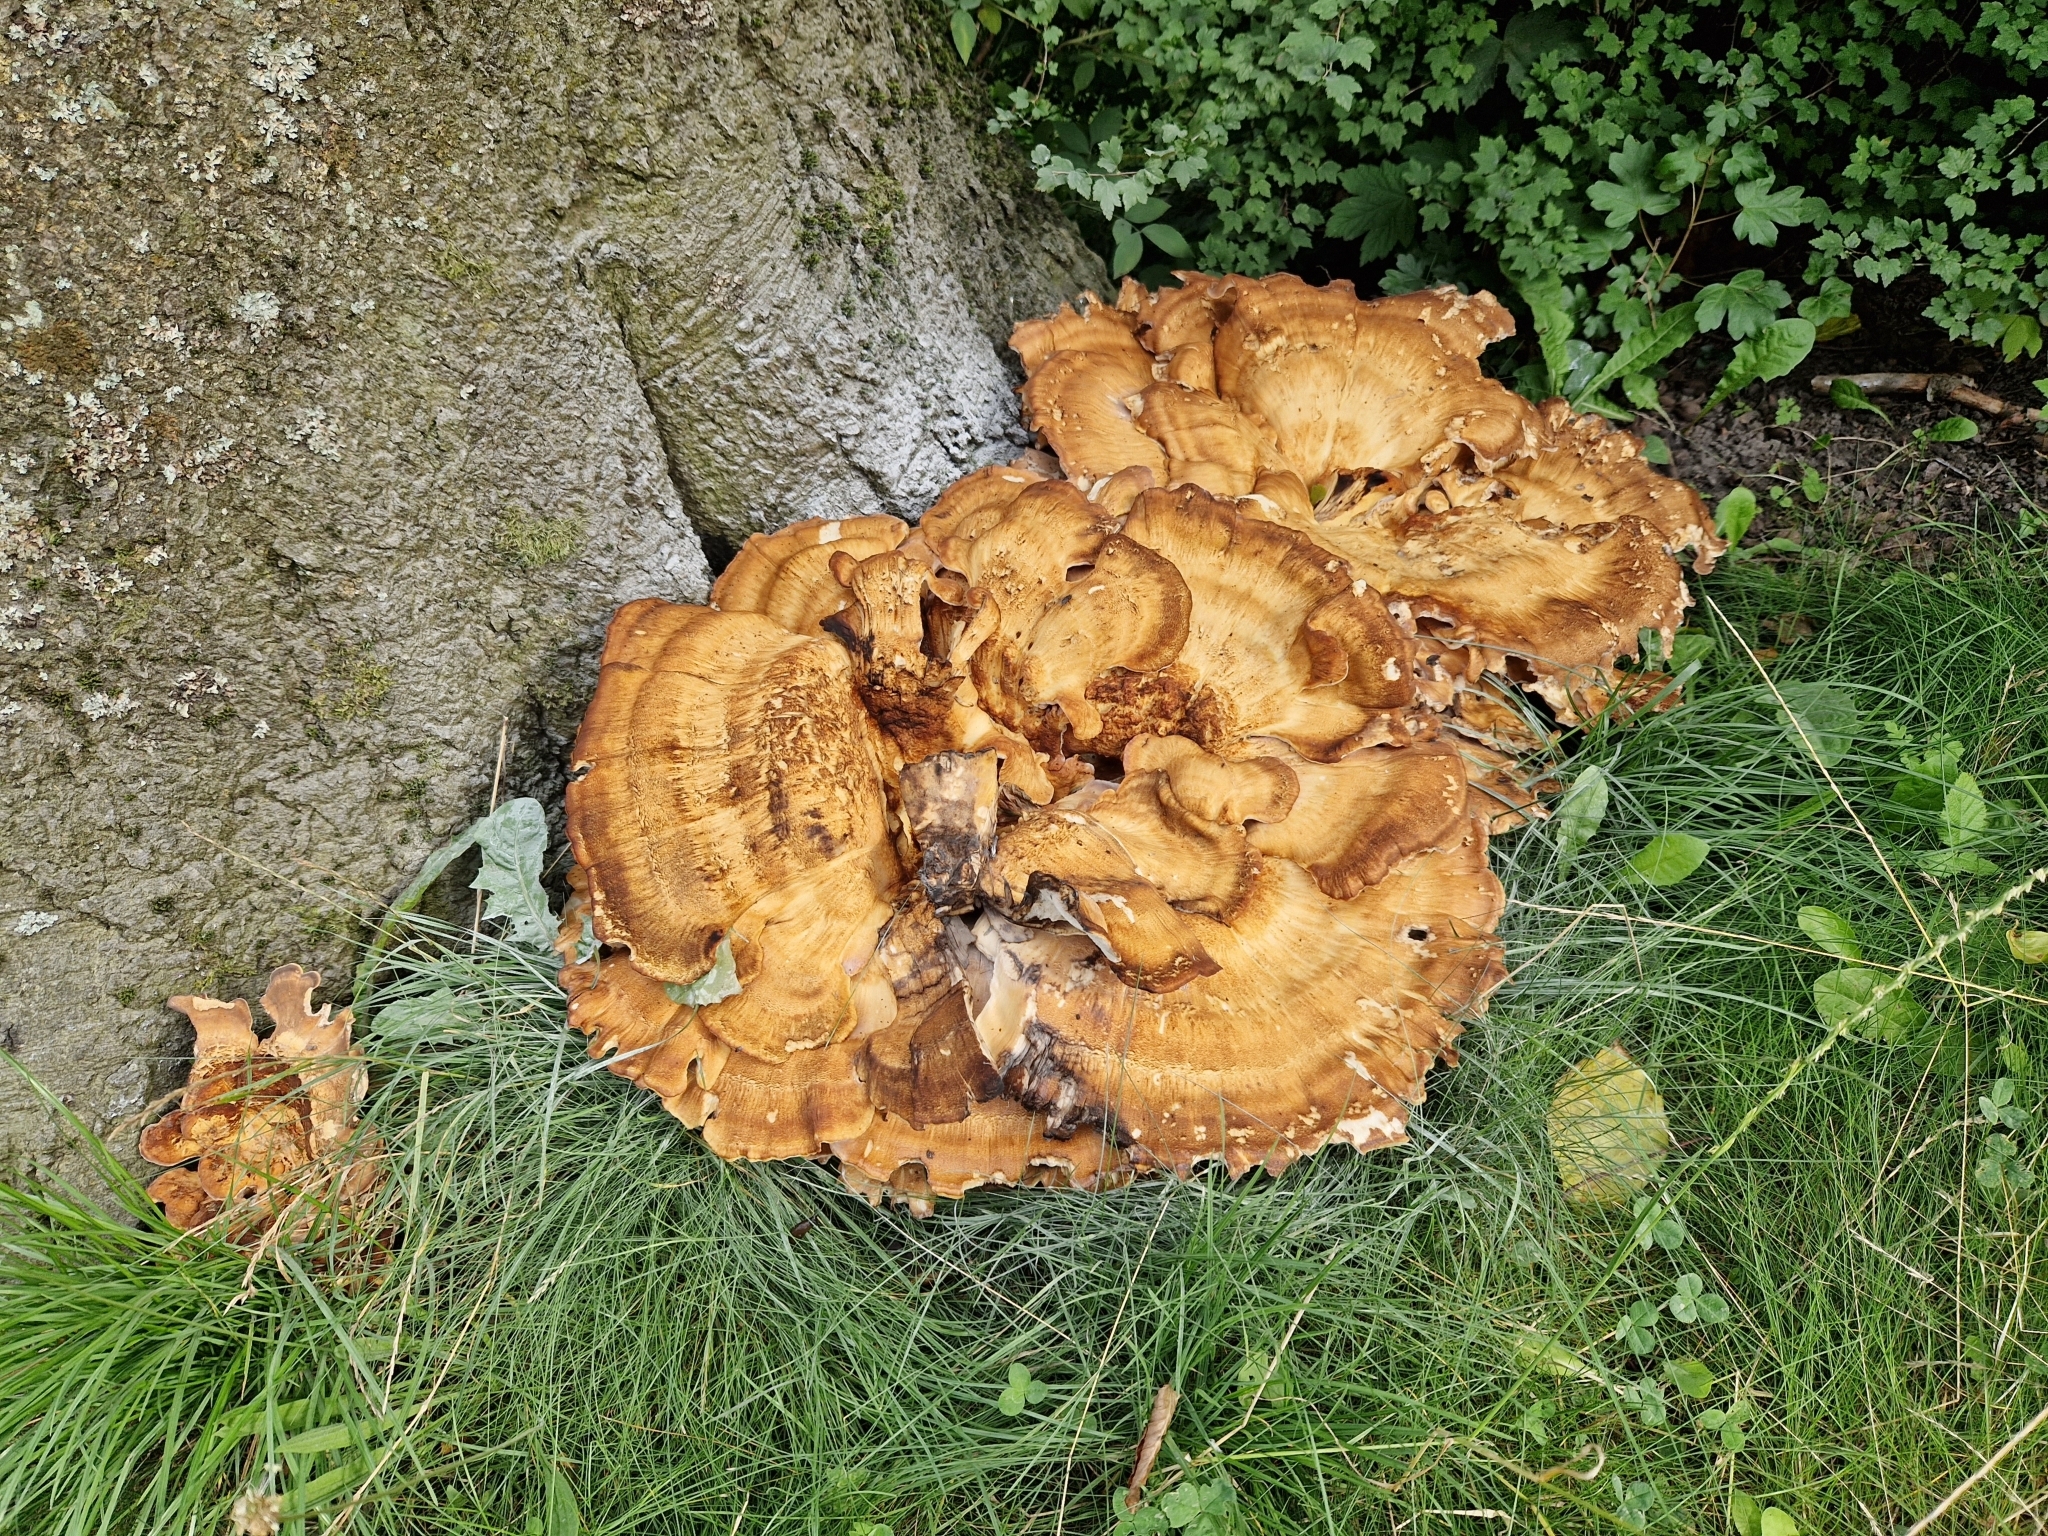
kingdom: Fungi
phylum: Basidiomycota
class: Agaricomycetes
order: Polyporales
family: Meripilaceae
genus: Meripilus
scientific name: Meripilus giganteus
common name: Giant polypore
